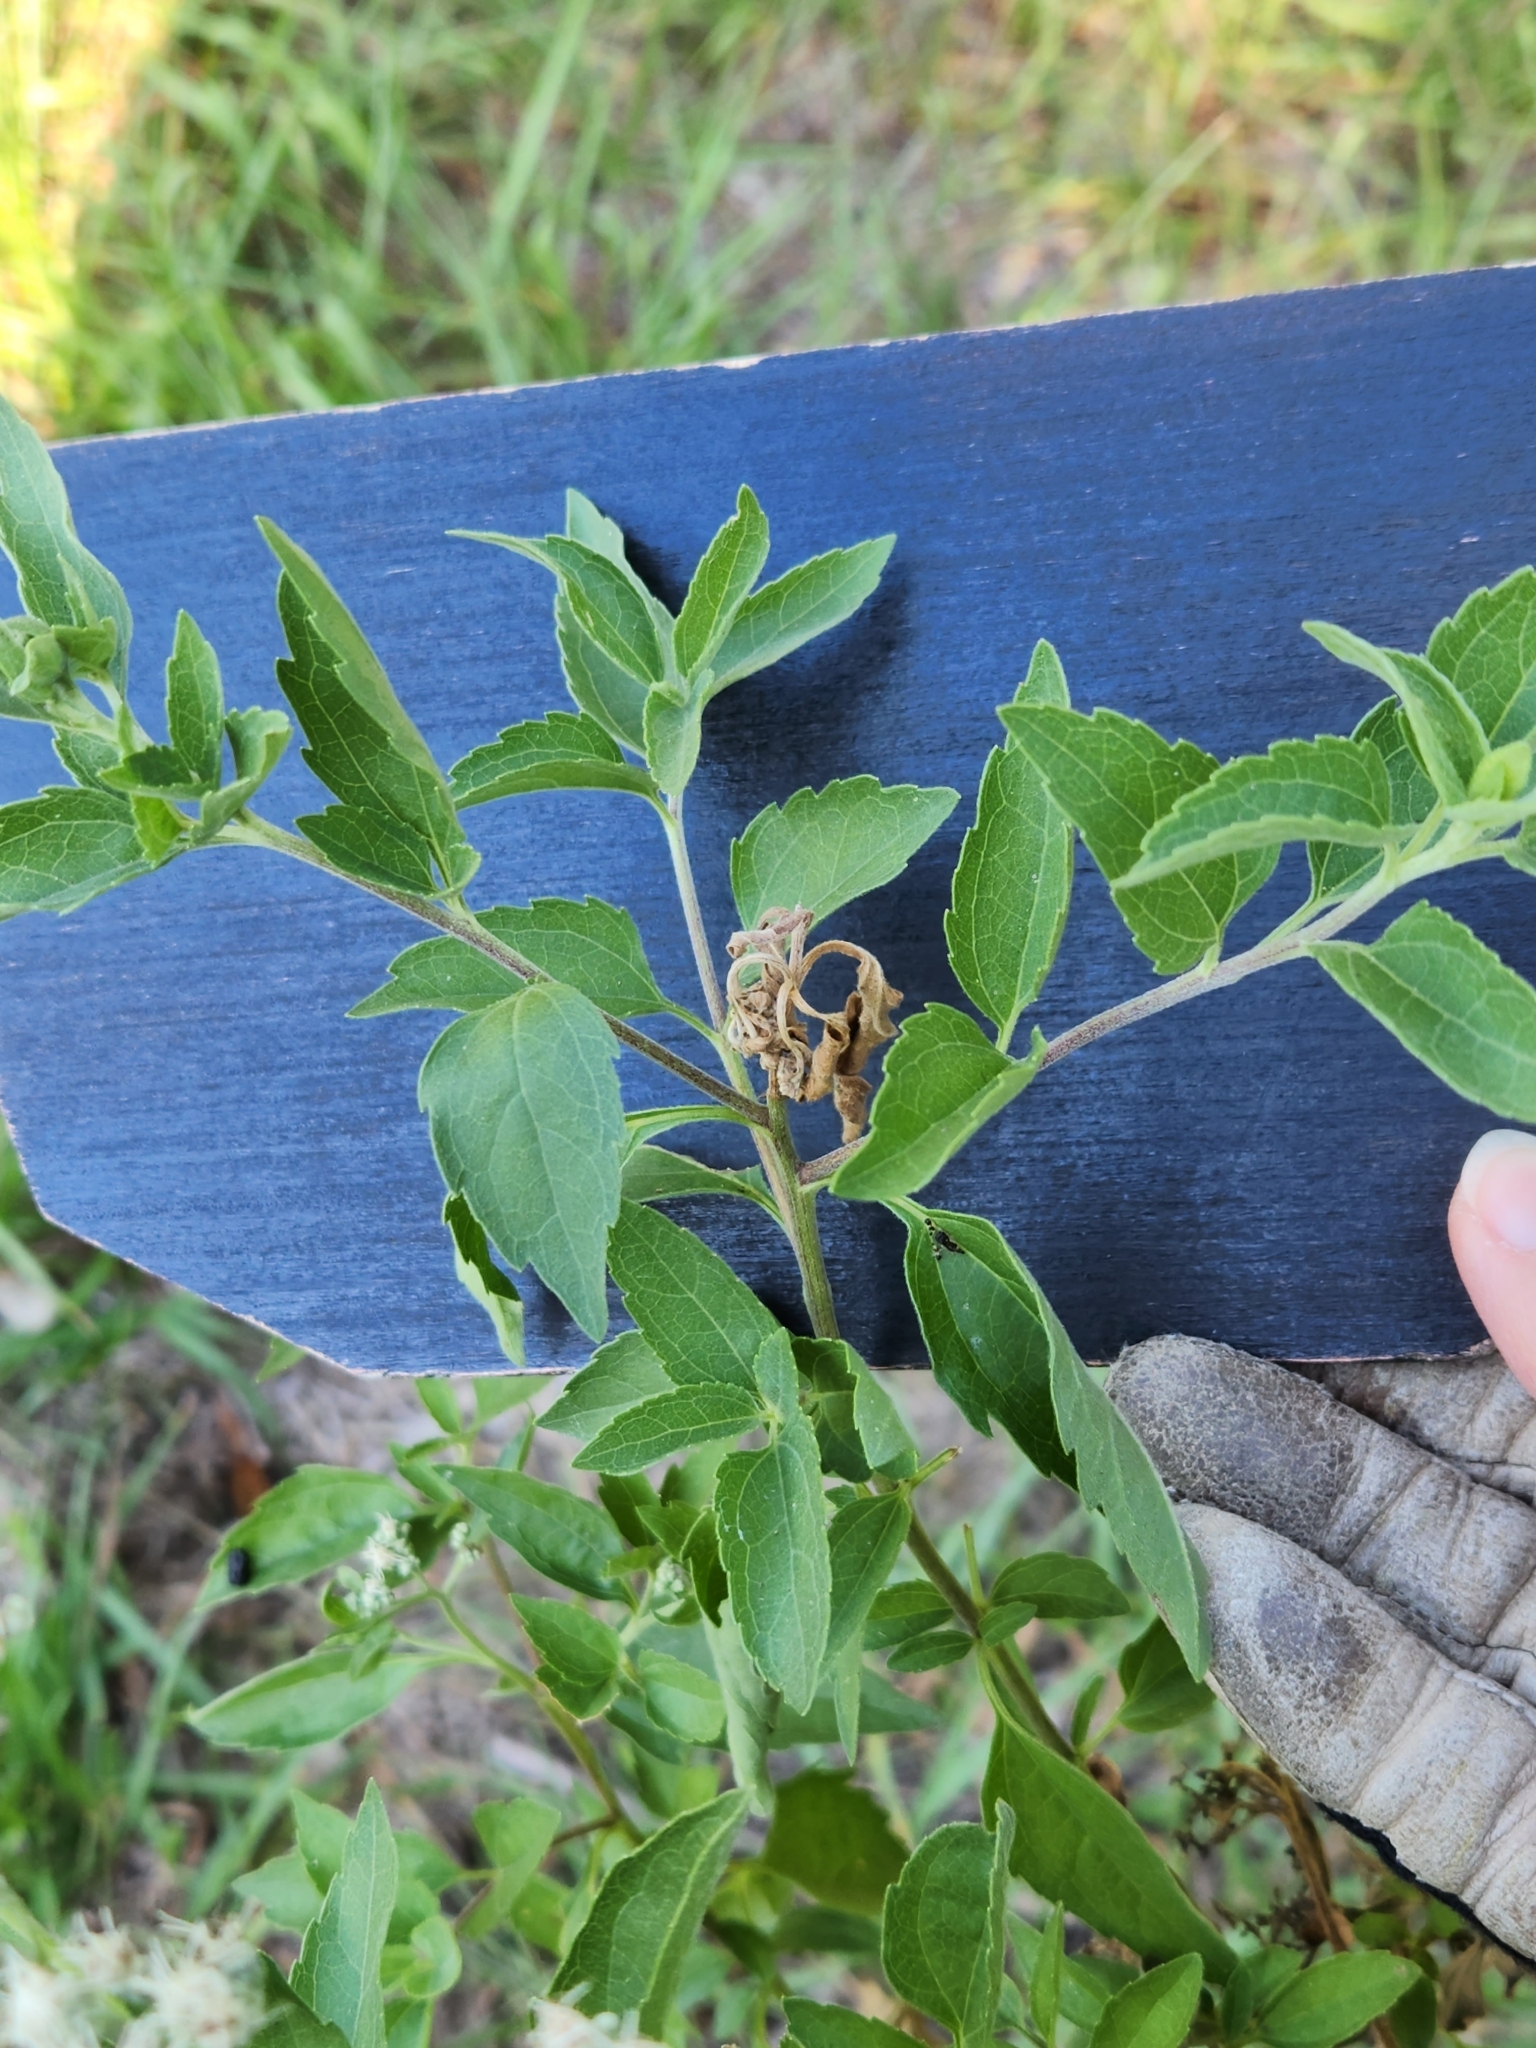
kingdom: Plantae
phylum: Tracheophyta
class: Magnoliopsida
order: Asterales
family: Asteraceae
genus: Eupatorium
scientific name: Eupatorium serotinum
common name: Late boneset
